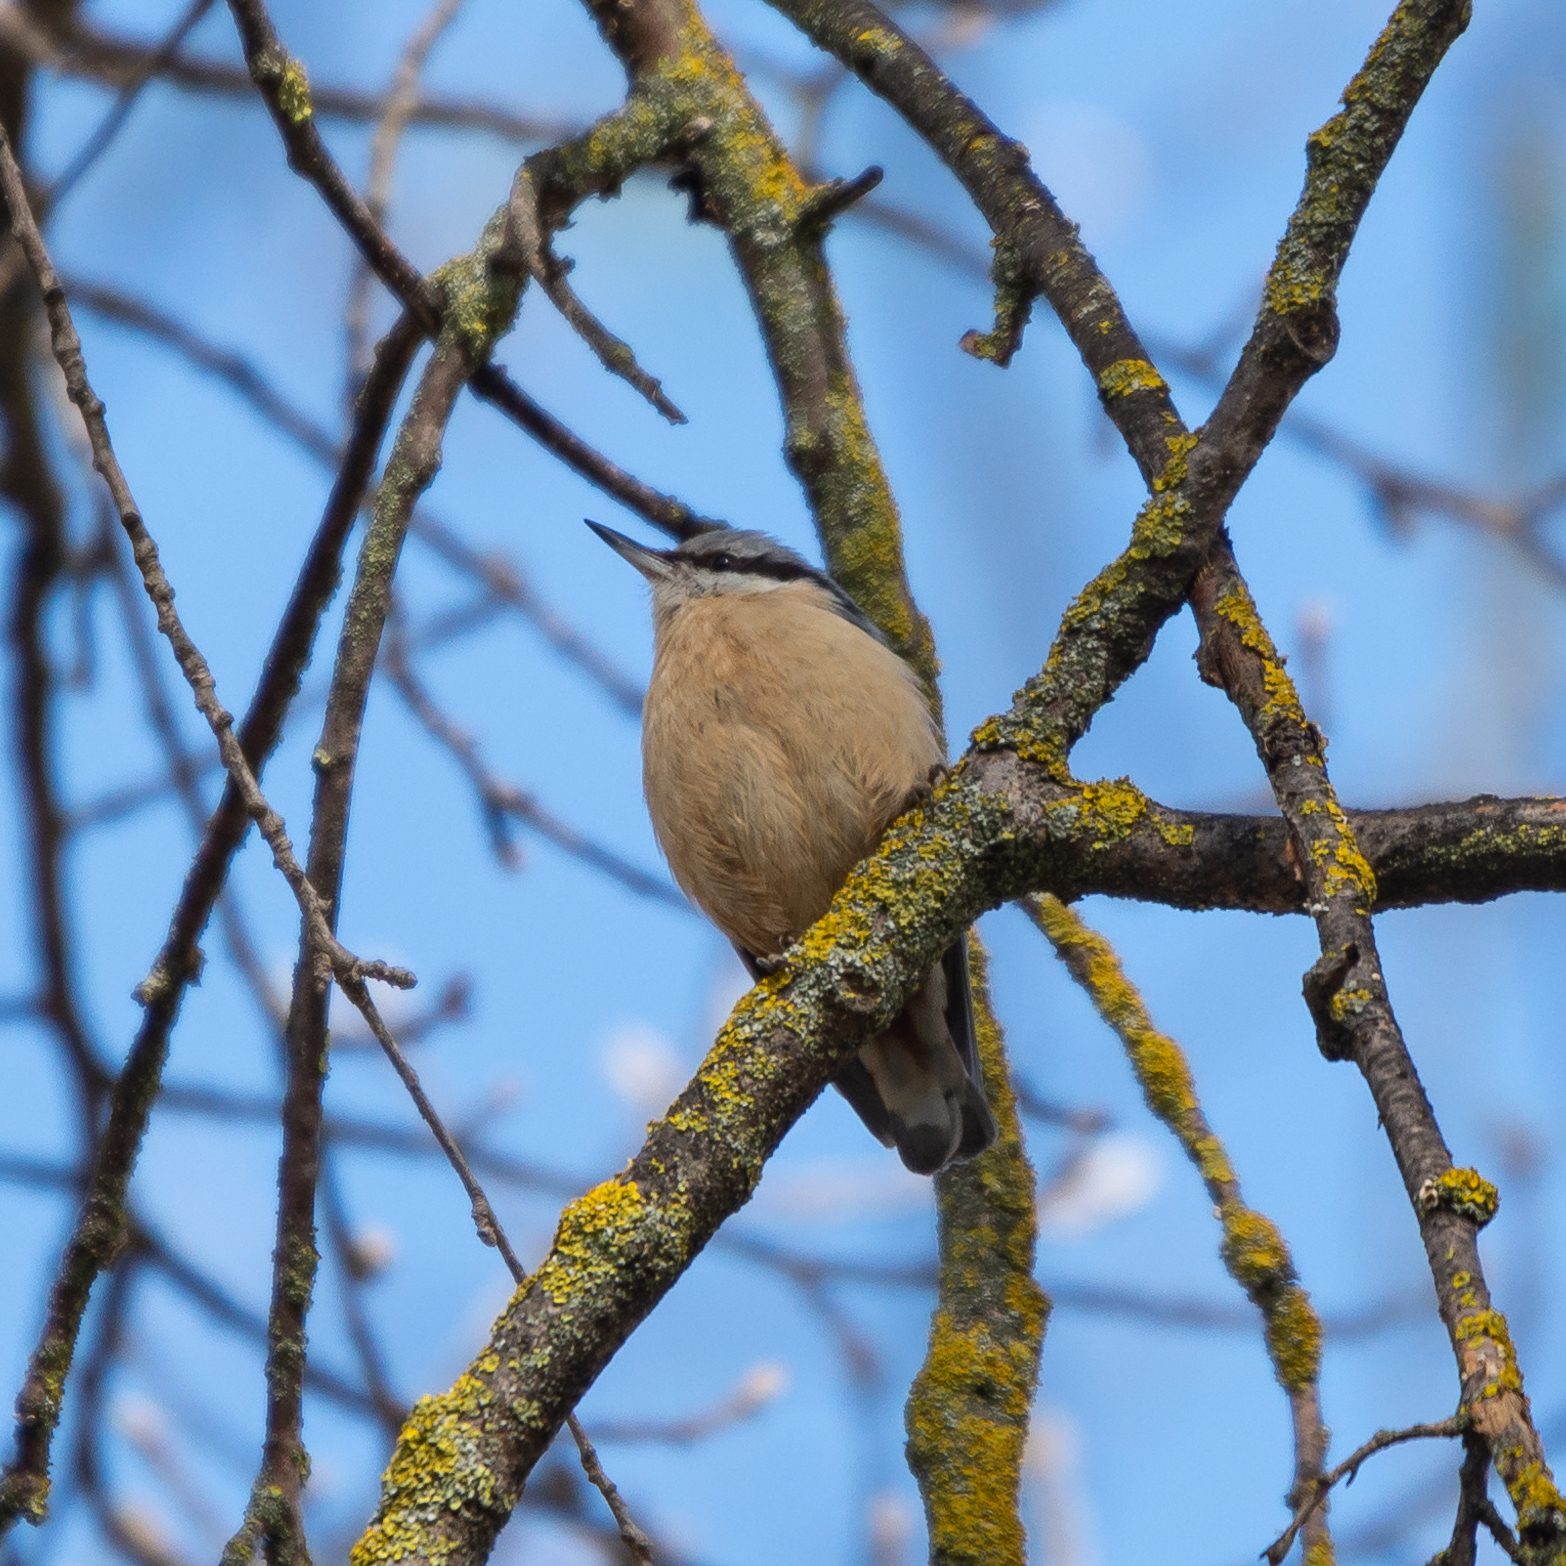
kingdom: Animalia
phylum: Chordata
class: Aves
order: Passeriformes
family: Sittidae
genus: Sitta
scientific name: Sitta europaea
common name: Eurasian nuthatch
